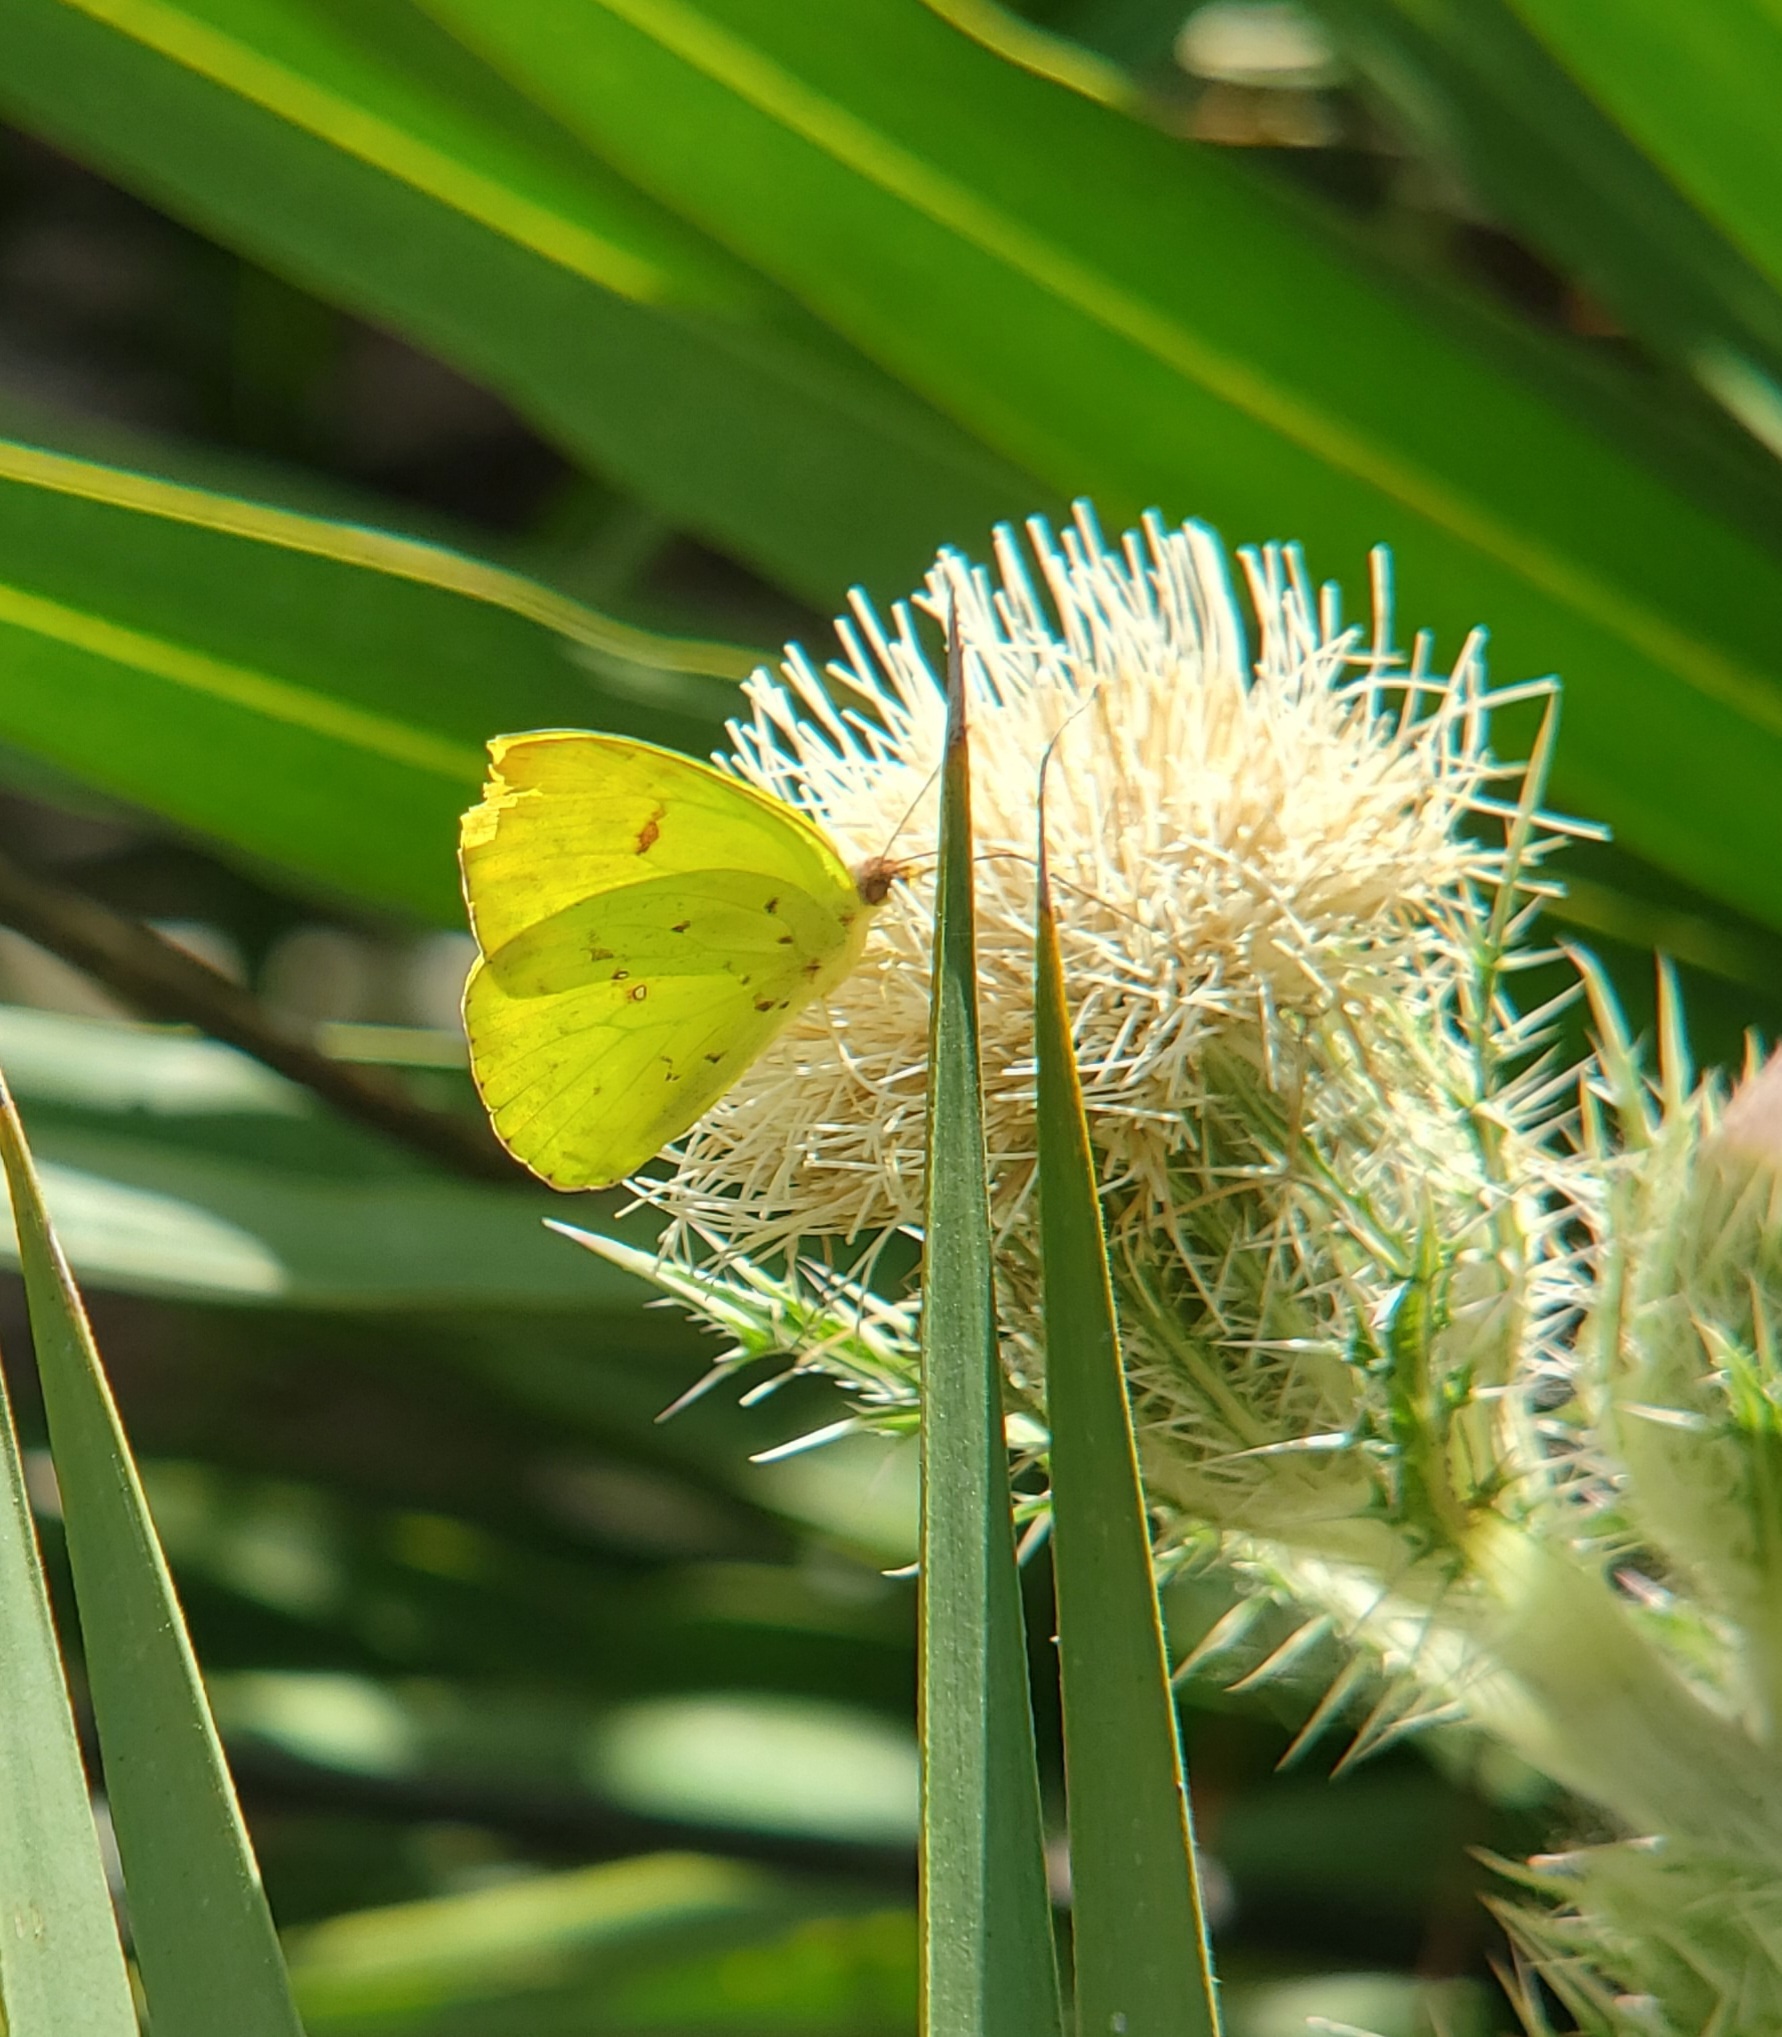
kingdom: Animalia
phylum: Arthropoda
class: Insecta
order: Lepidoptera
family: Pieridae
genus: Phoebis
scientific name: Phoebis sennae
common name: Cloudless sulphur
